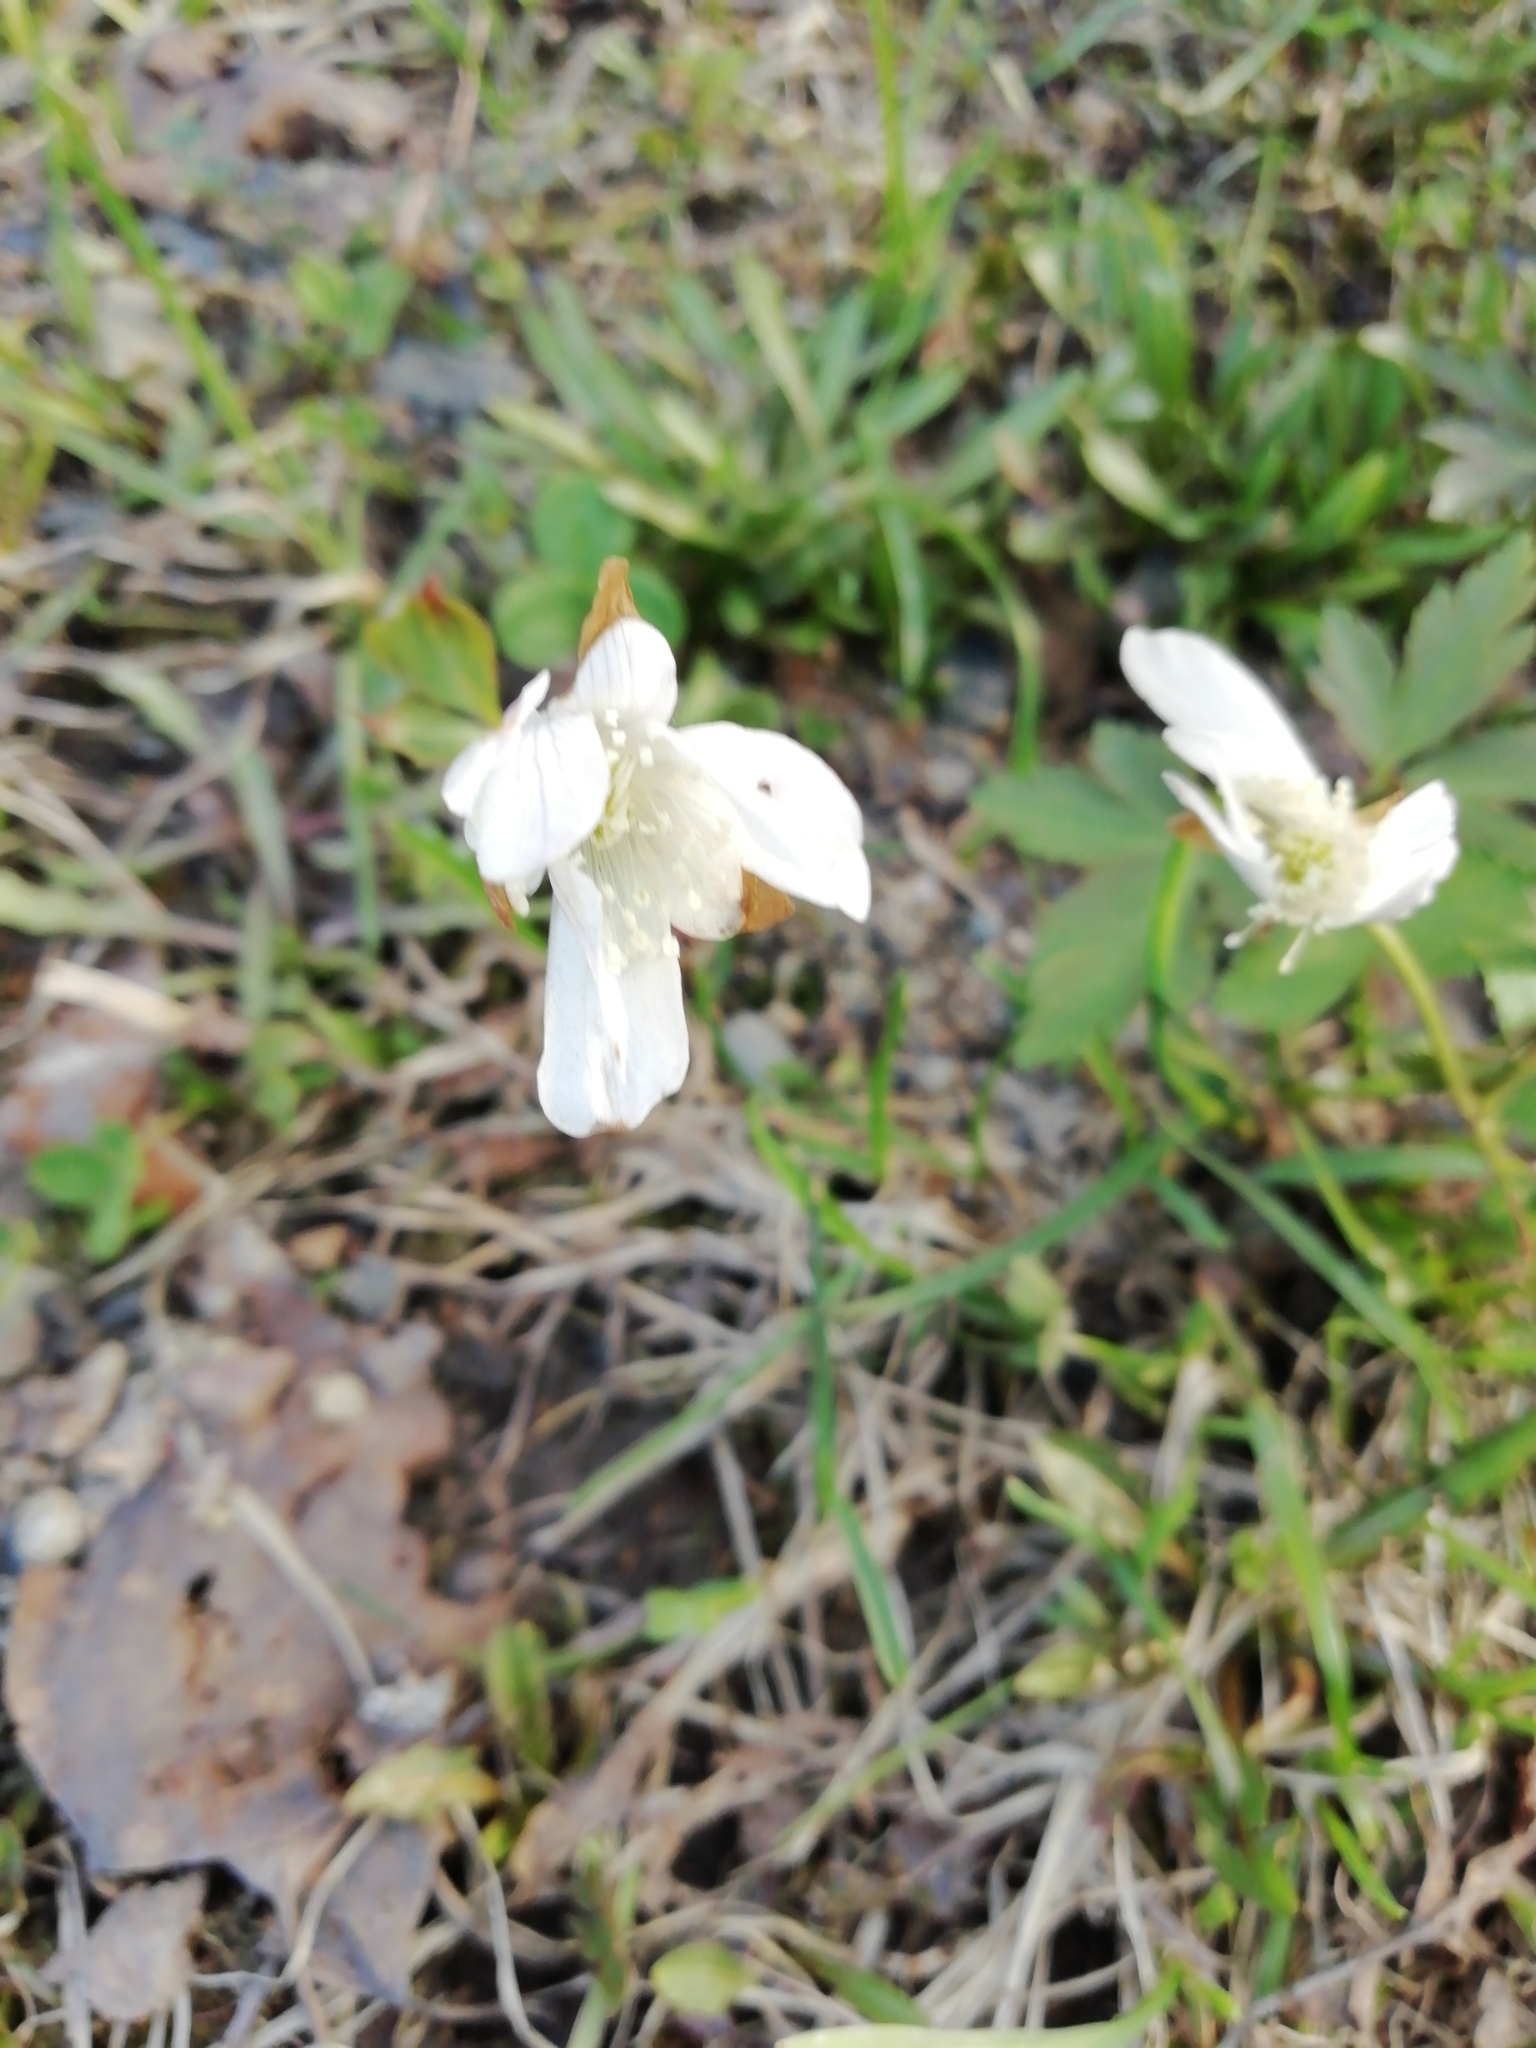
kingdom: Plantae
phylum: Tracheophyta
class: Magnoliopsida
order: Ranunculales
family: Ranunculaceae
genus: Anemone
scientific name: Anemone altaica
